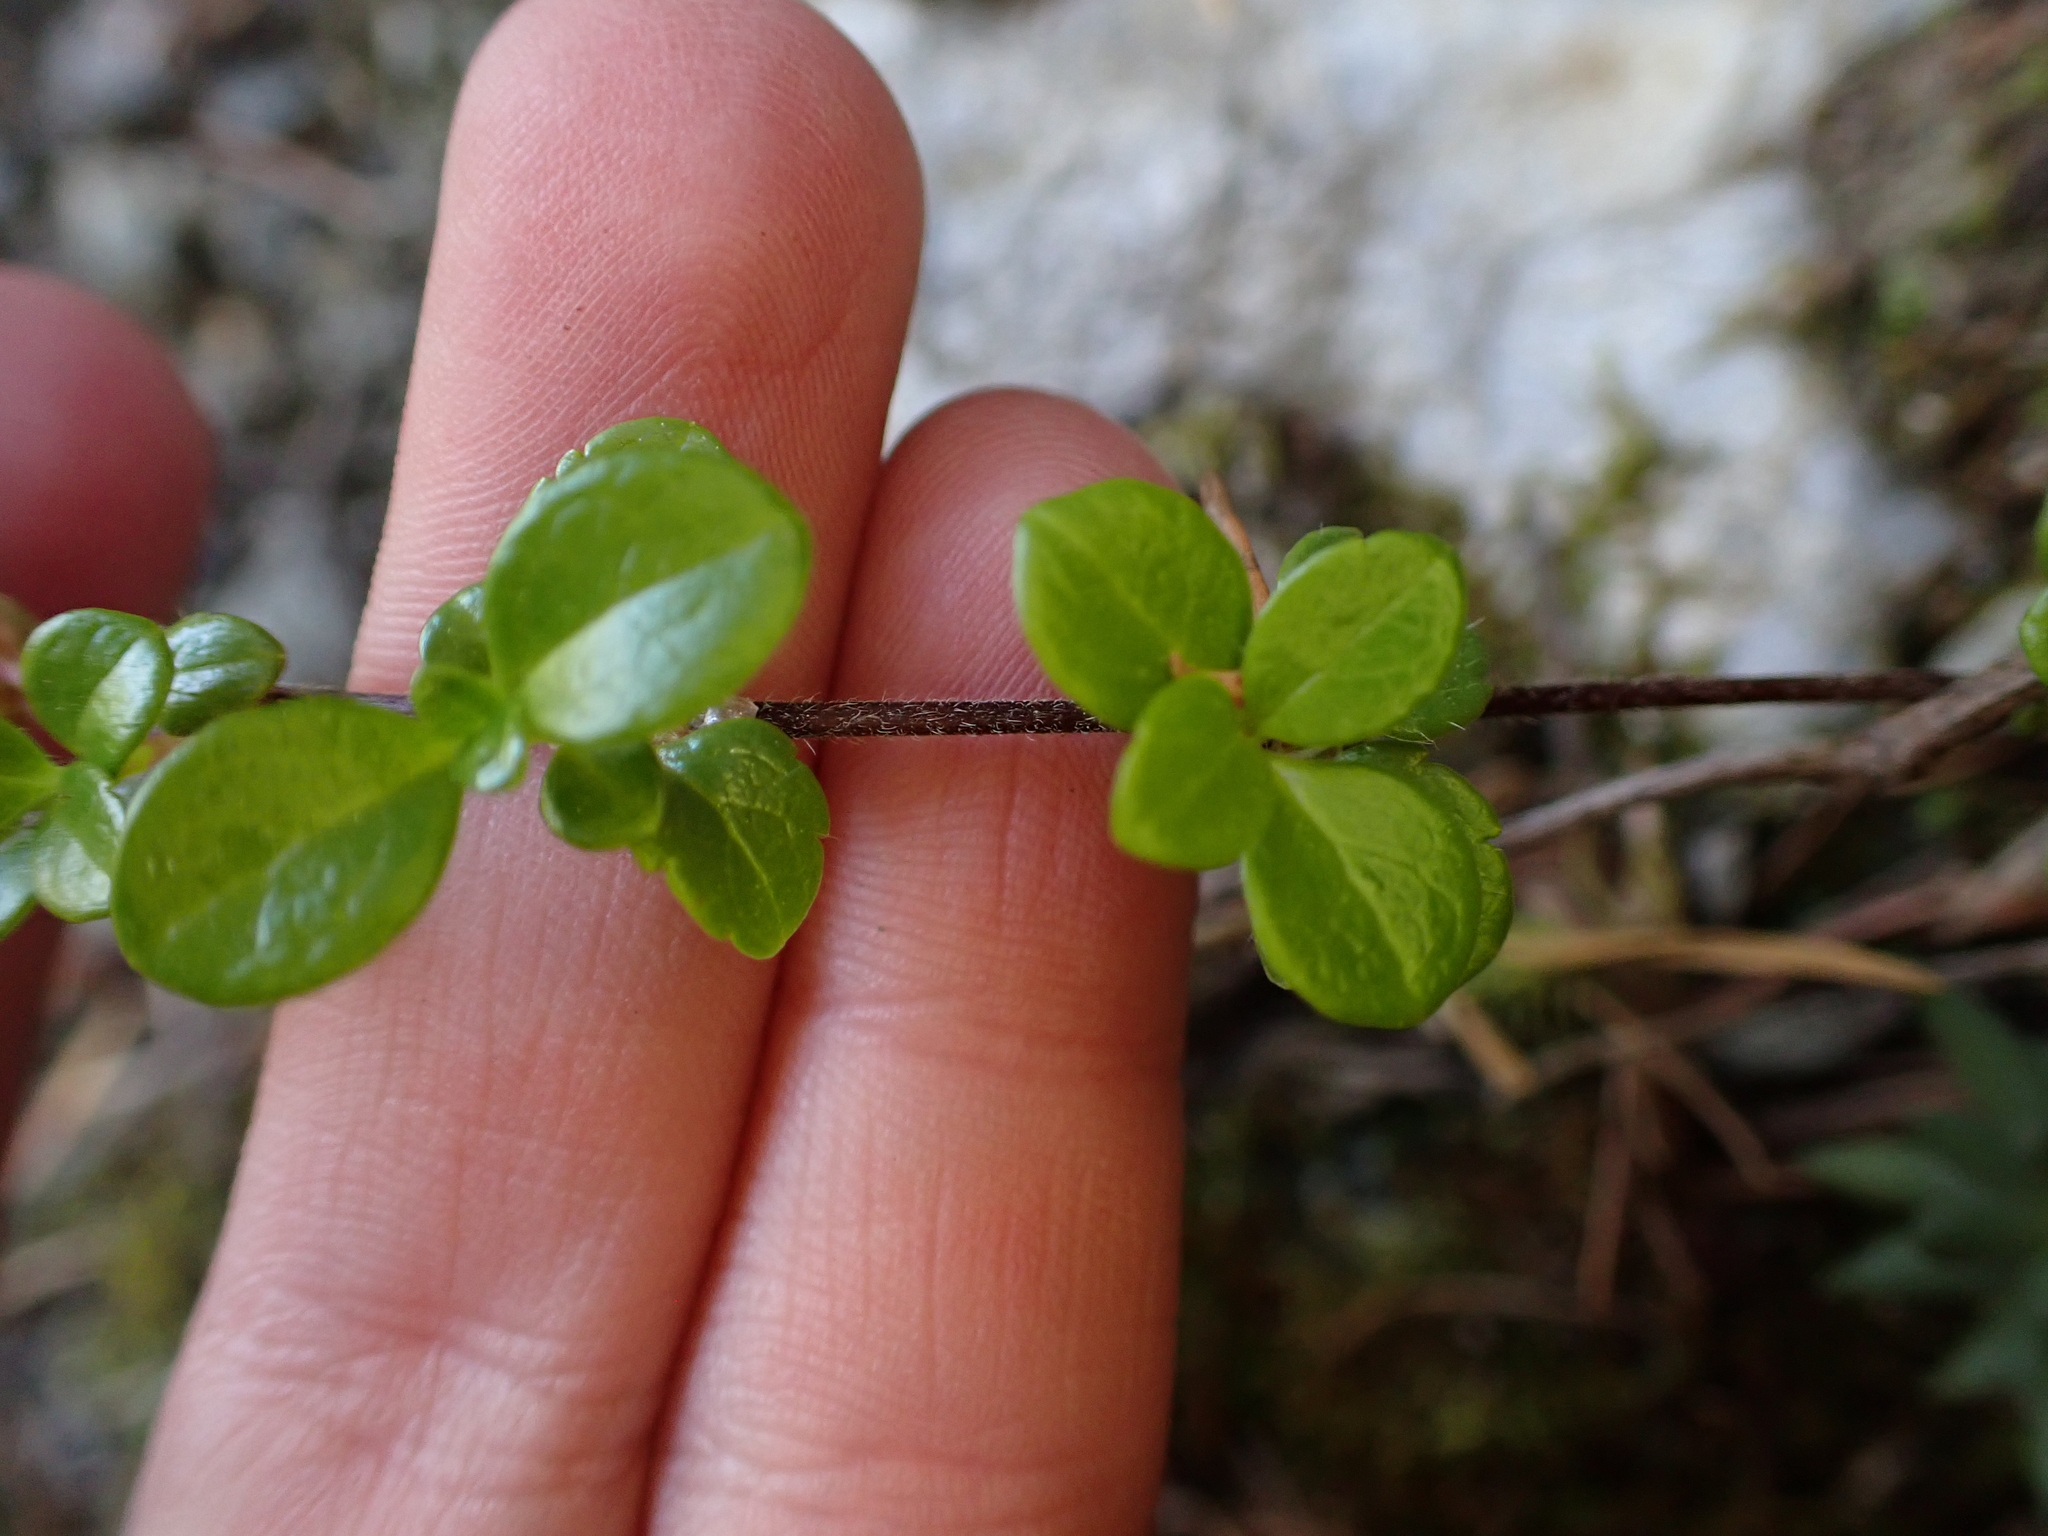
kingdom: Plantae
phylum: Tracheophyta
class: Magnoliopsida
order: Dipsacales
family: Caprifoliaceae
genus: Linnaea
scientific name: Linnaea borealis
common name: Twinflower
